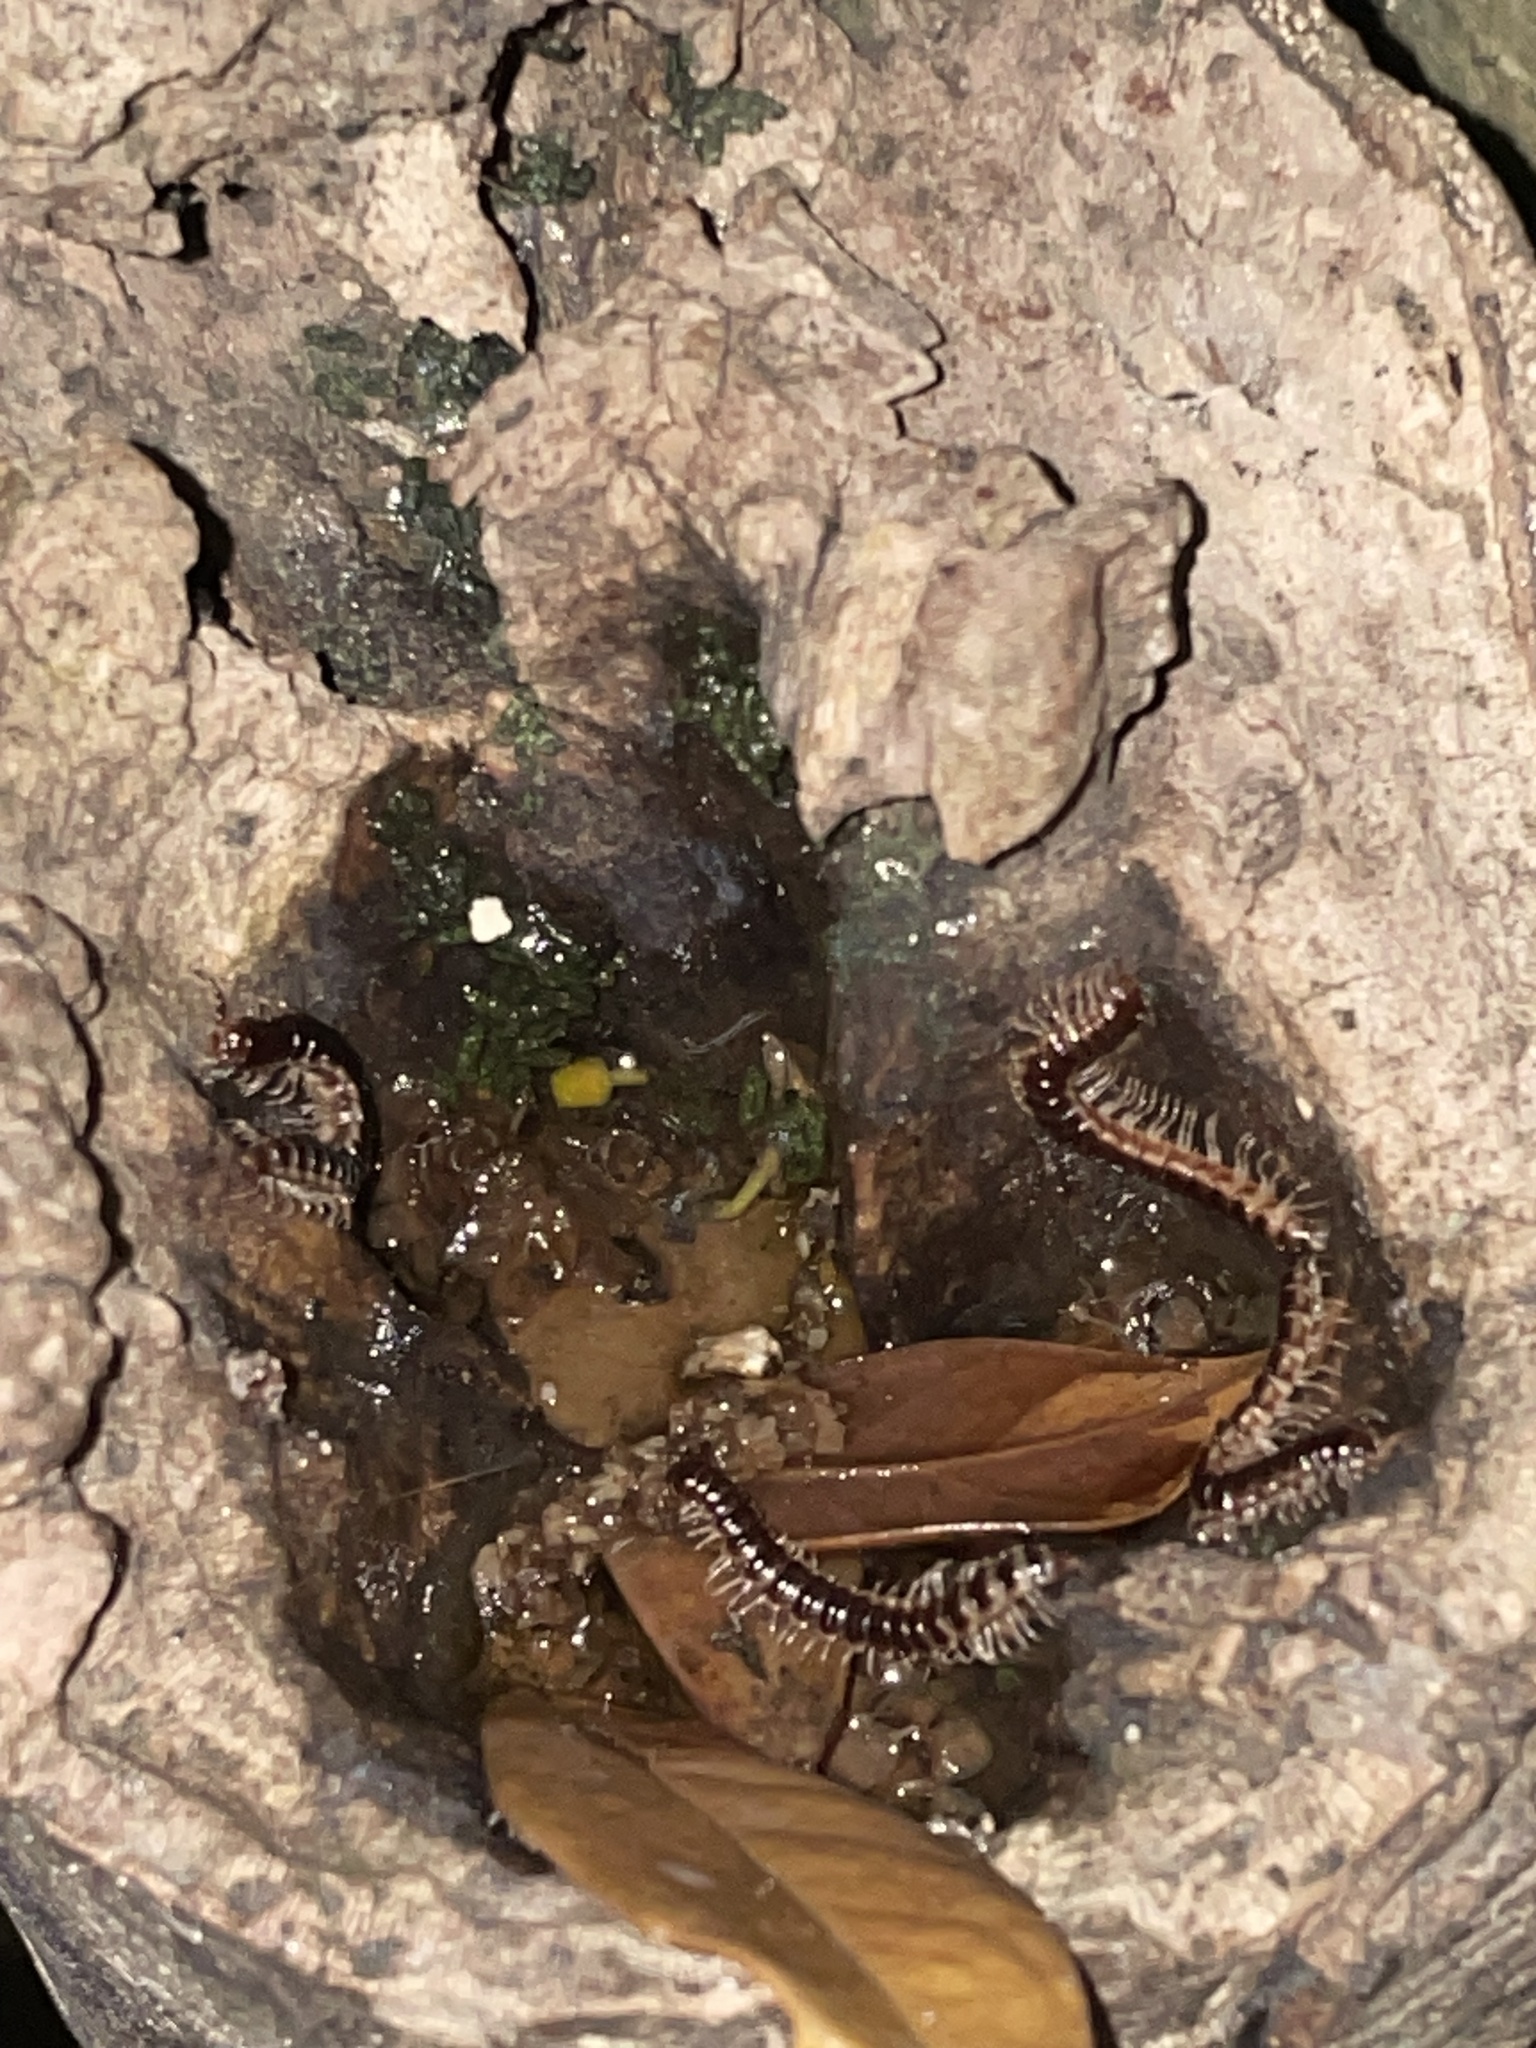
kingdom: Animalia
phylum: Arthropoda
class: Diplopoda
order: Polydesmida
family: Paradoxosomatidae
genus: Oxidus
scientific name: Oxidus gracilis
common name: Greenhouse millipede
